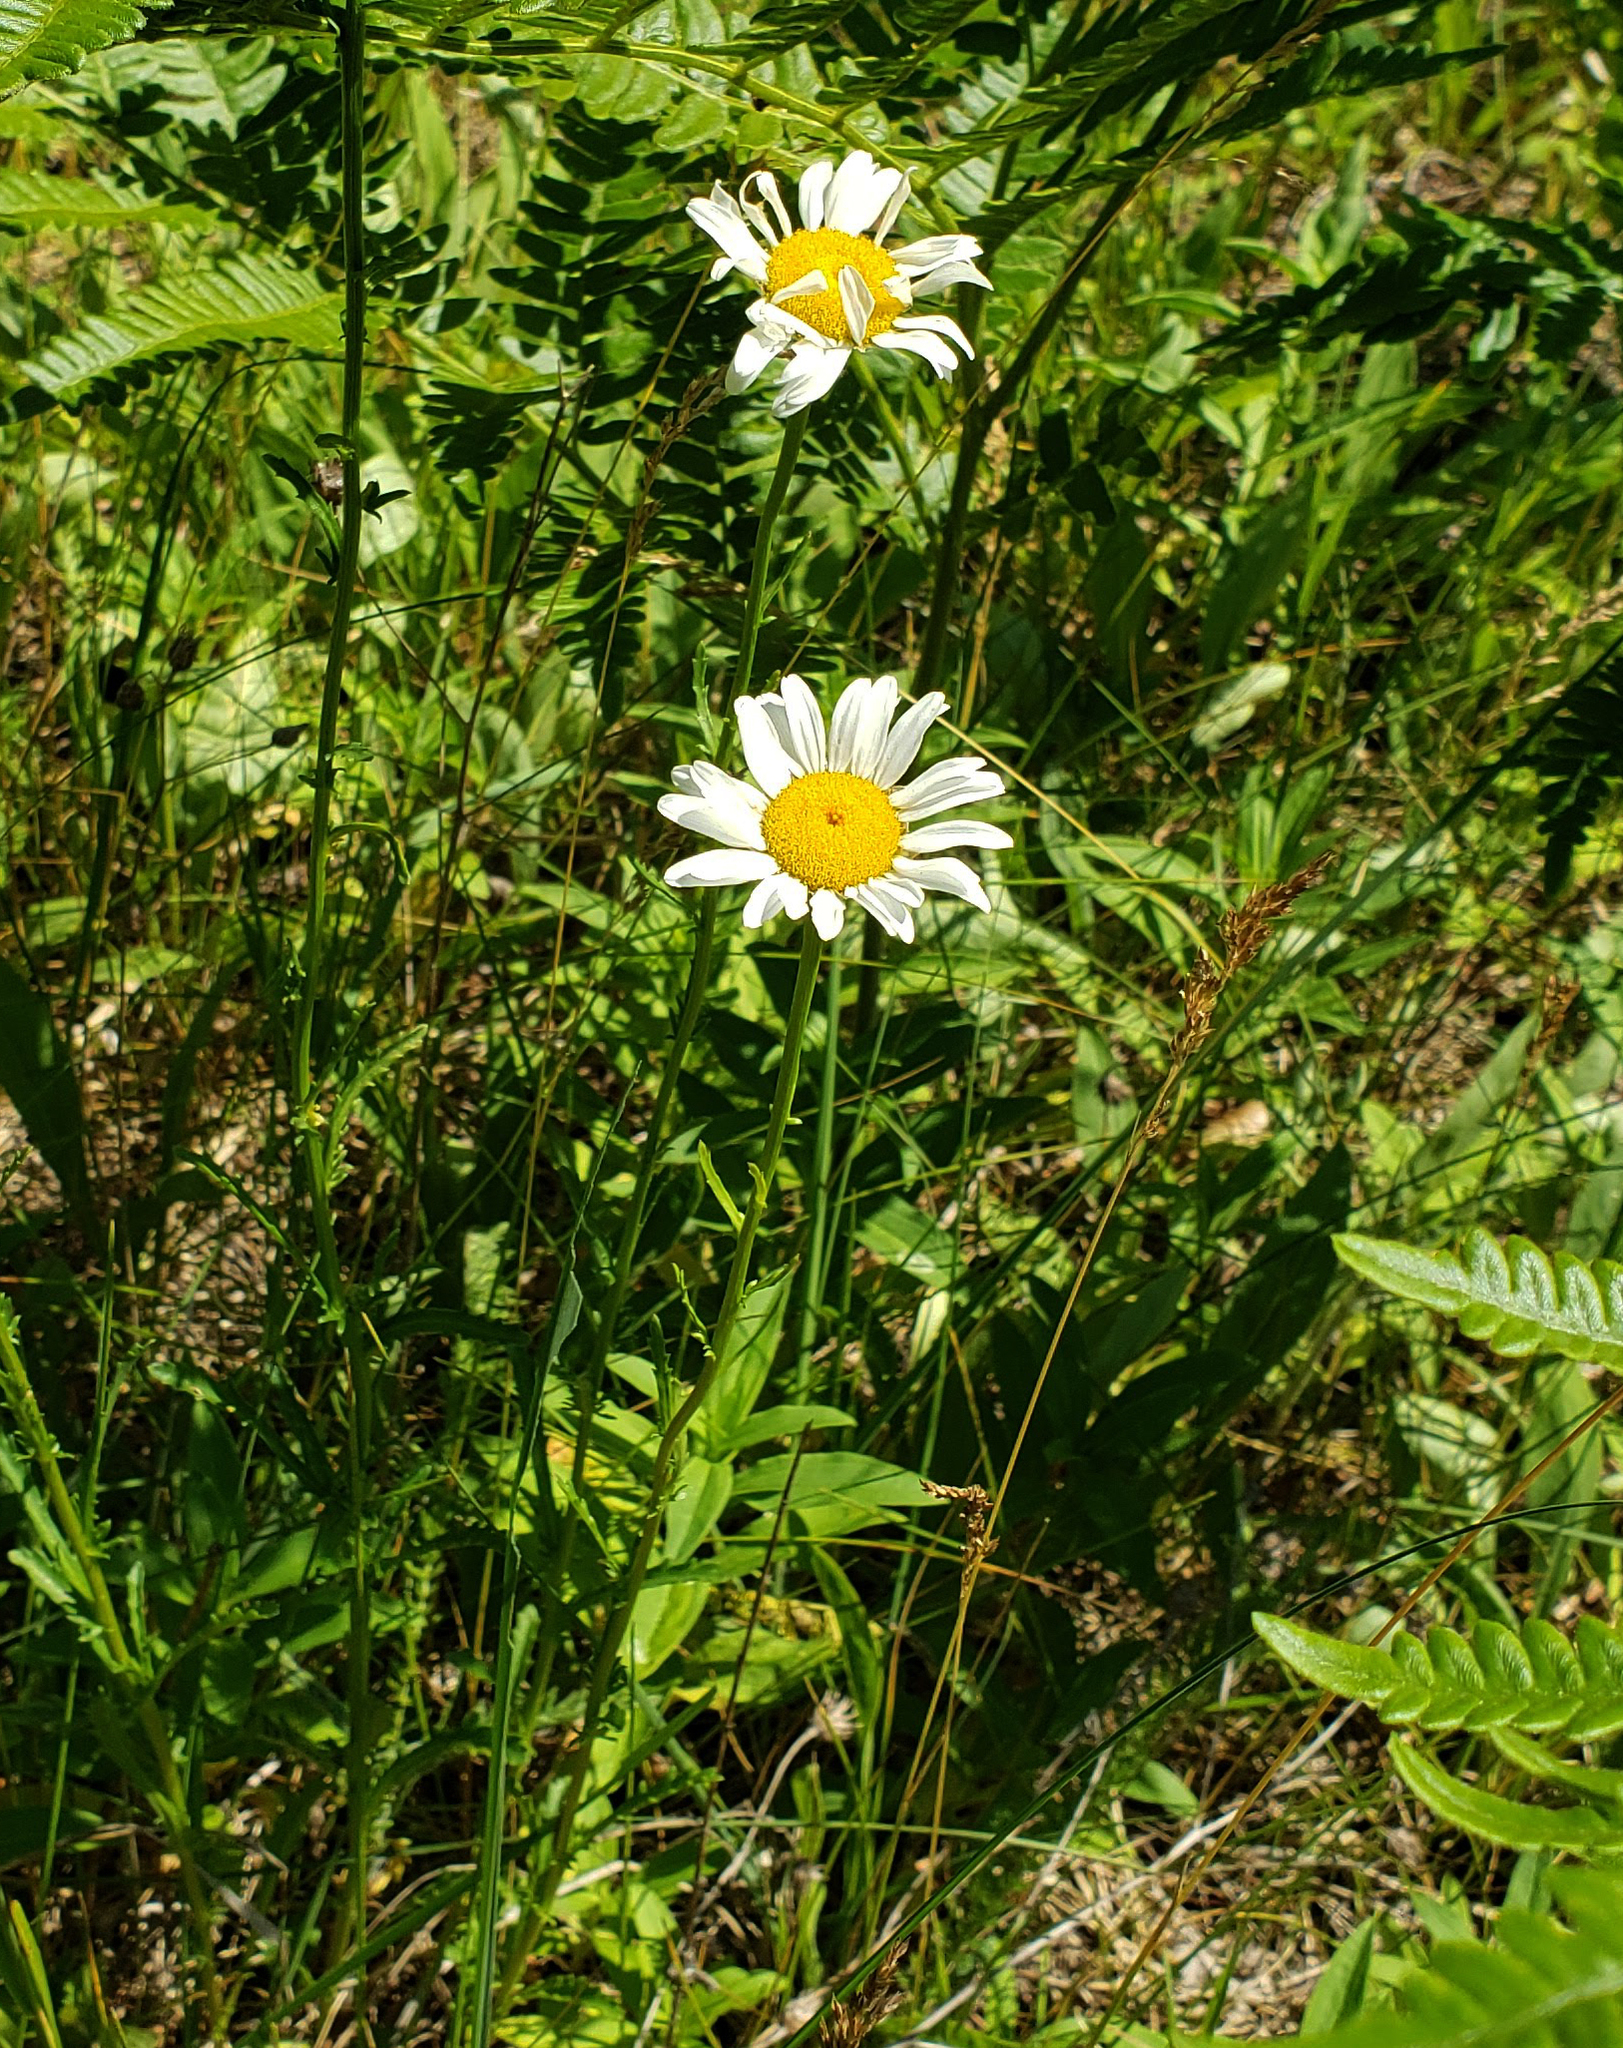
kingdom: Plantae
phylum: Tracheophyta
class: Magnoliopsida
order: Asterales
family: Asteraceae
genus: Leucanthemum
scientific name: Leucanthemum vulgare
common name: Oxeye daisy
